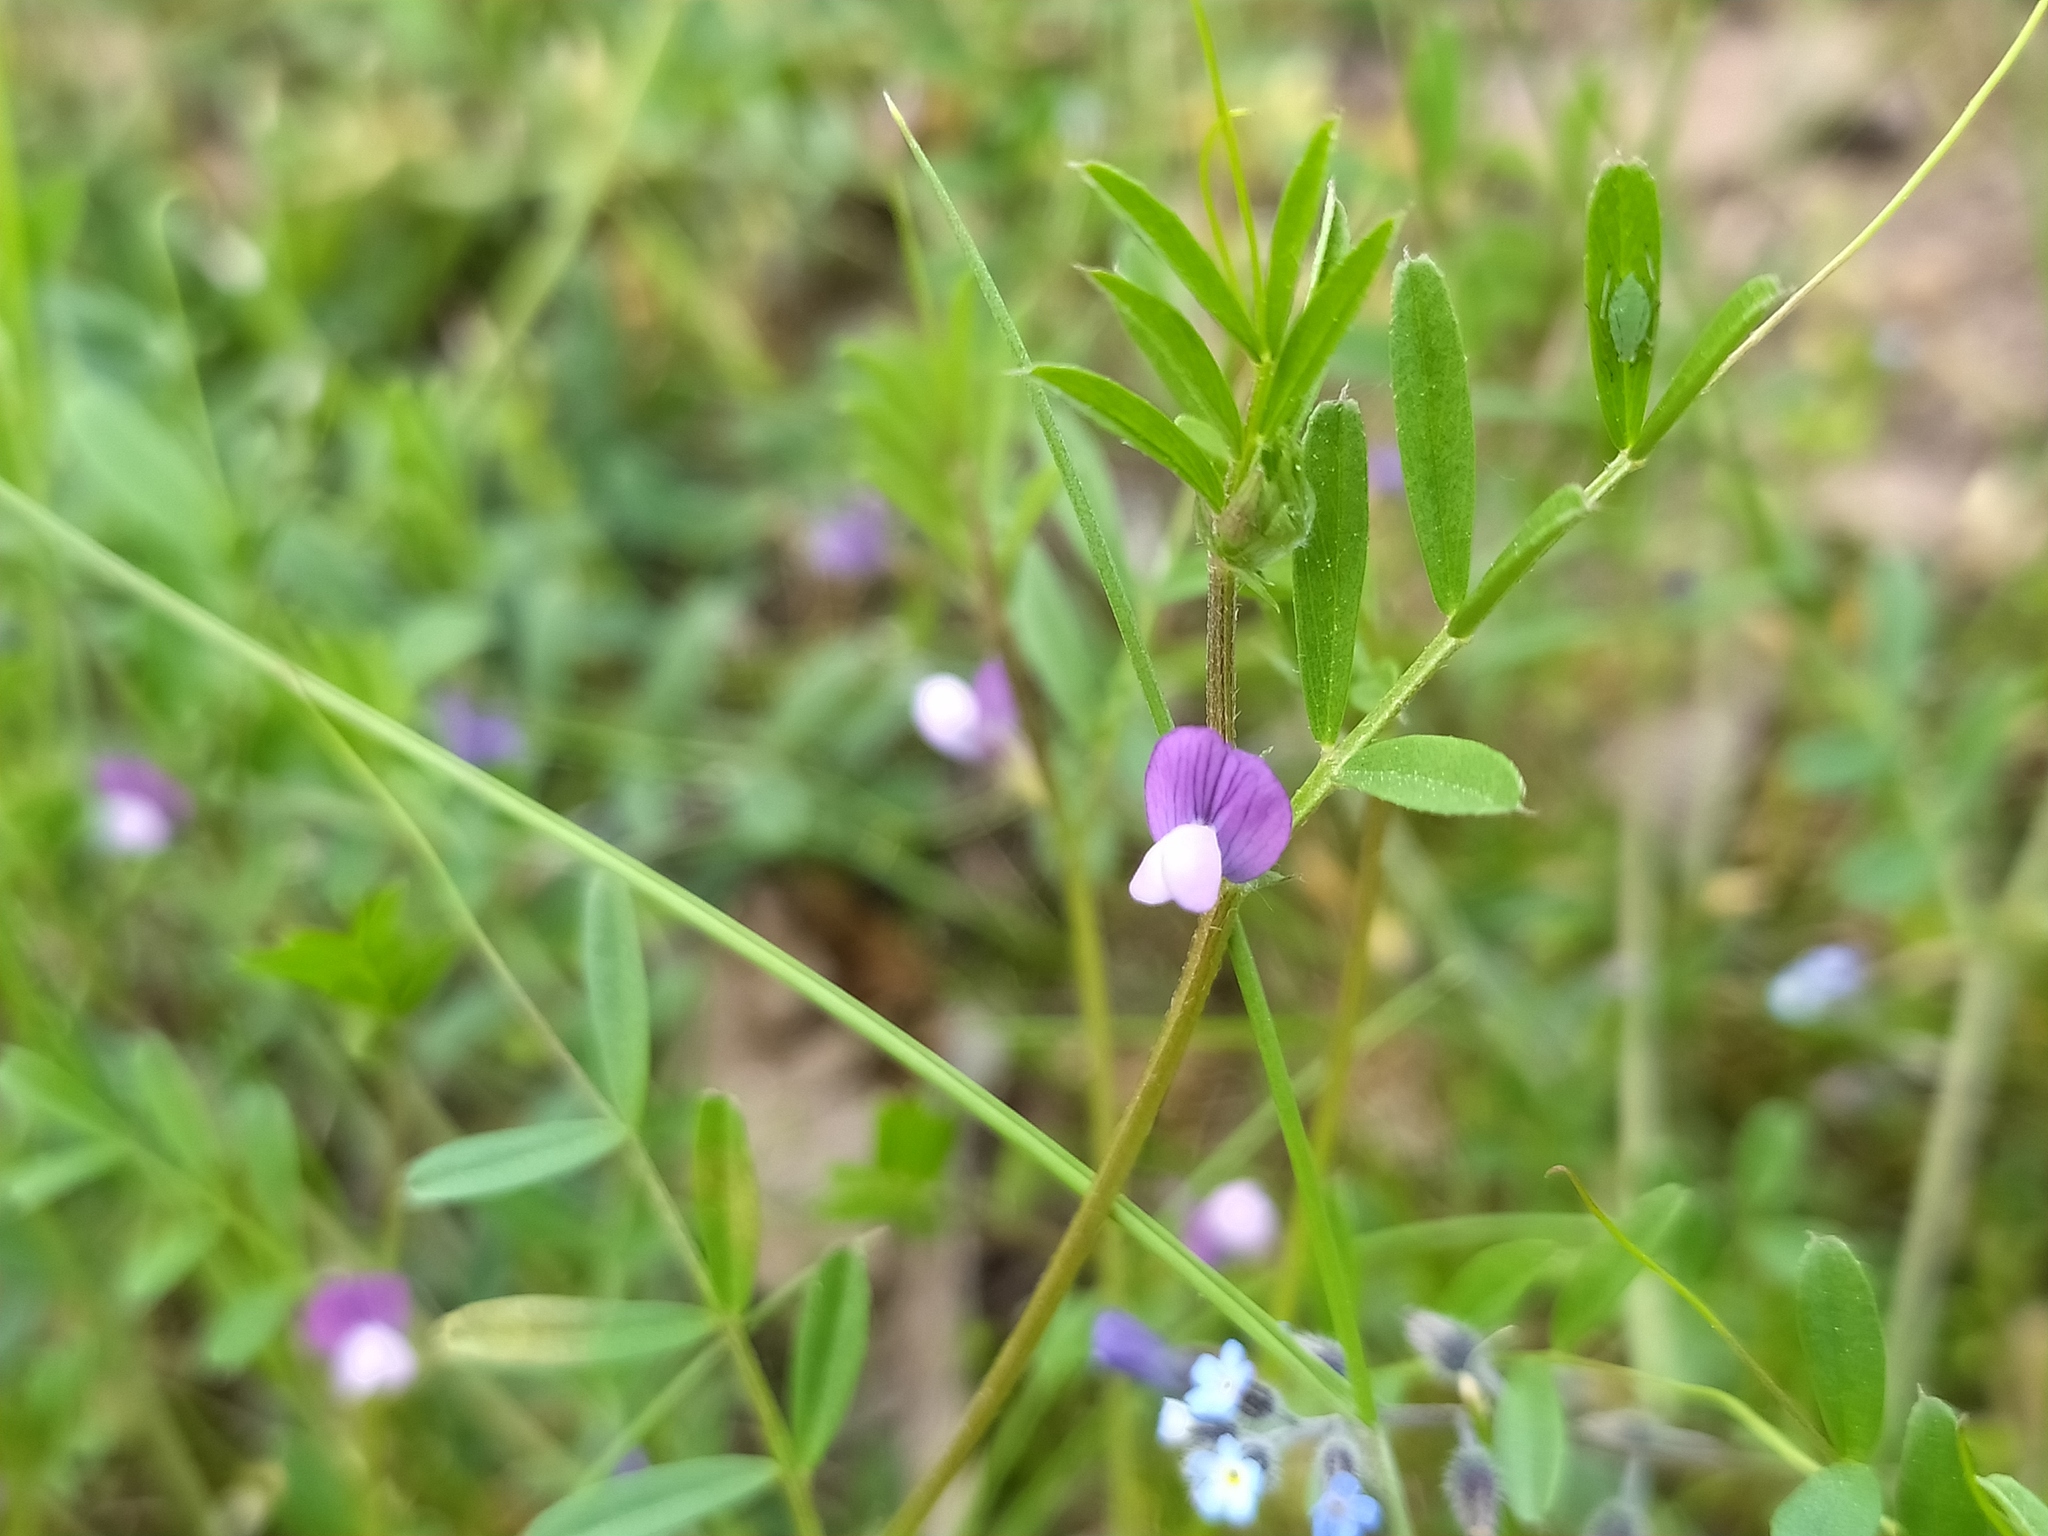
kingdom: Plantae
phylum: Tracheophyta
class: Magnoliopsida
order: Fabales
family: Fabaceae
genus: Vicia
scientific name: Vicia lathyroides
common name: Spring vetch
